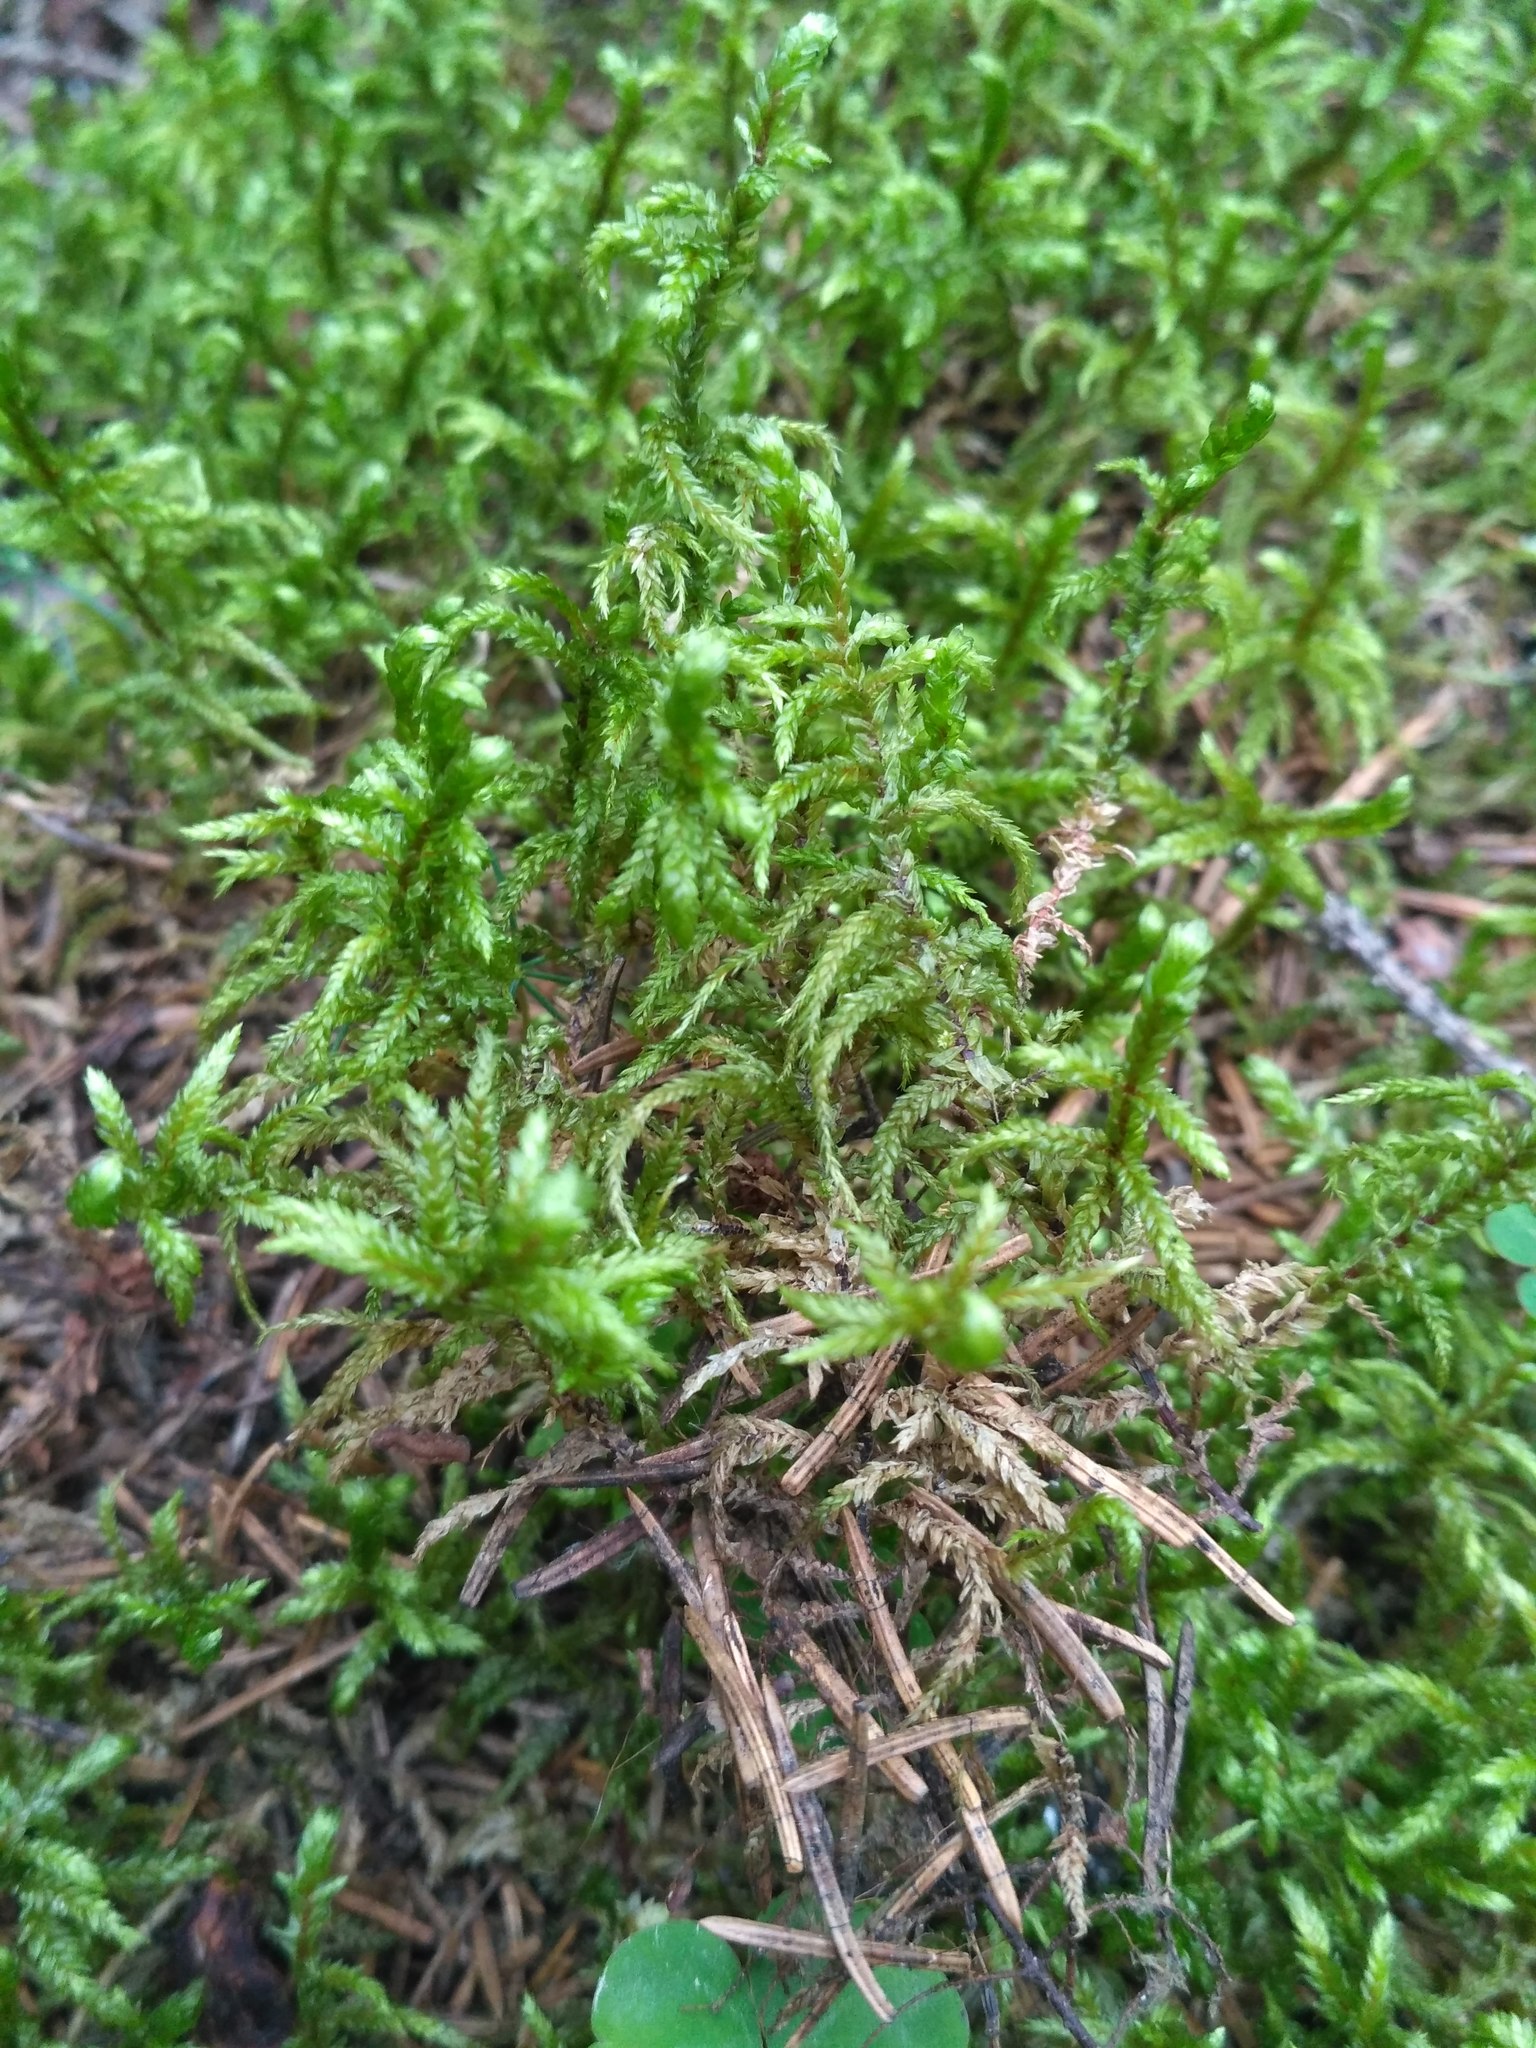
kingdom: Plantae
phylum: Bryophyta
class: Bryopsida
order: Hypnales
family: Hylocomiaceae
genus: Pleurozium
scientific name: Pleurozium schreberi
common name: Red-stemmed feather moss
